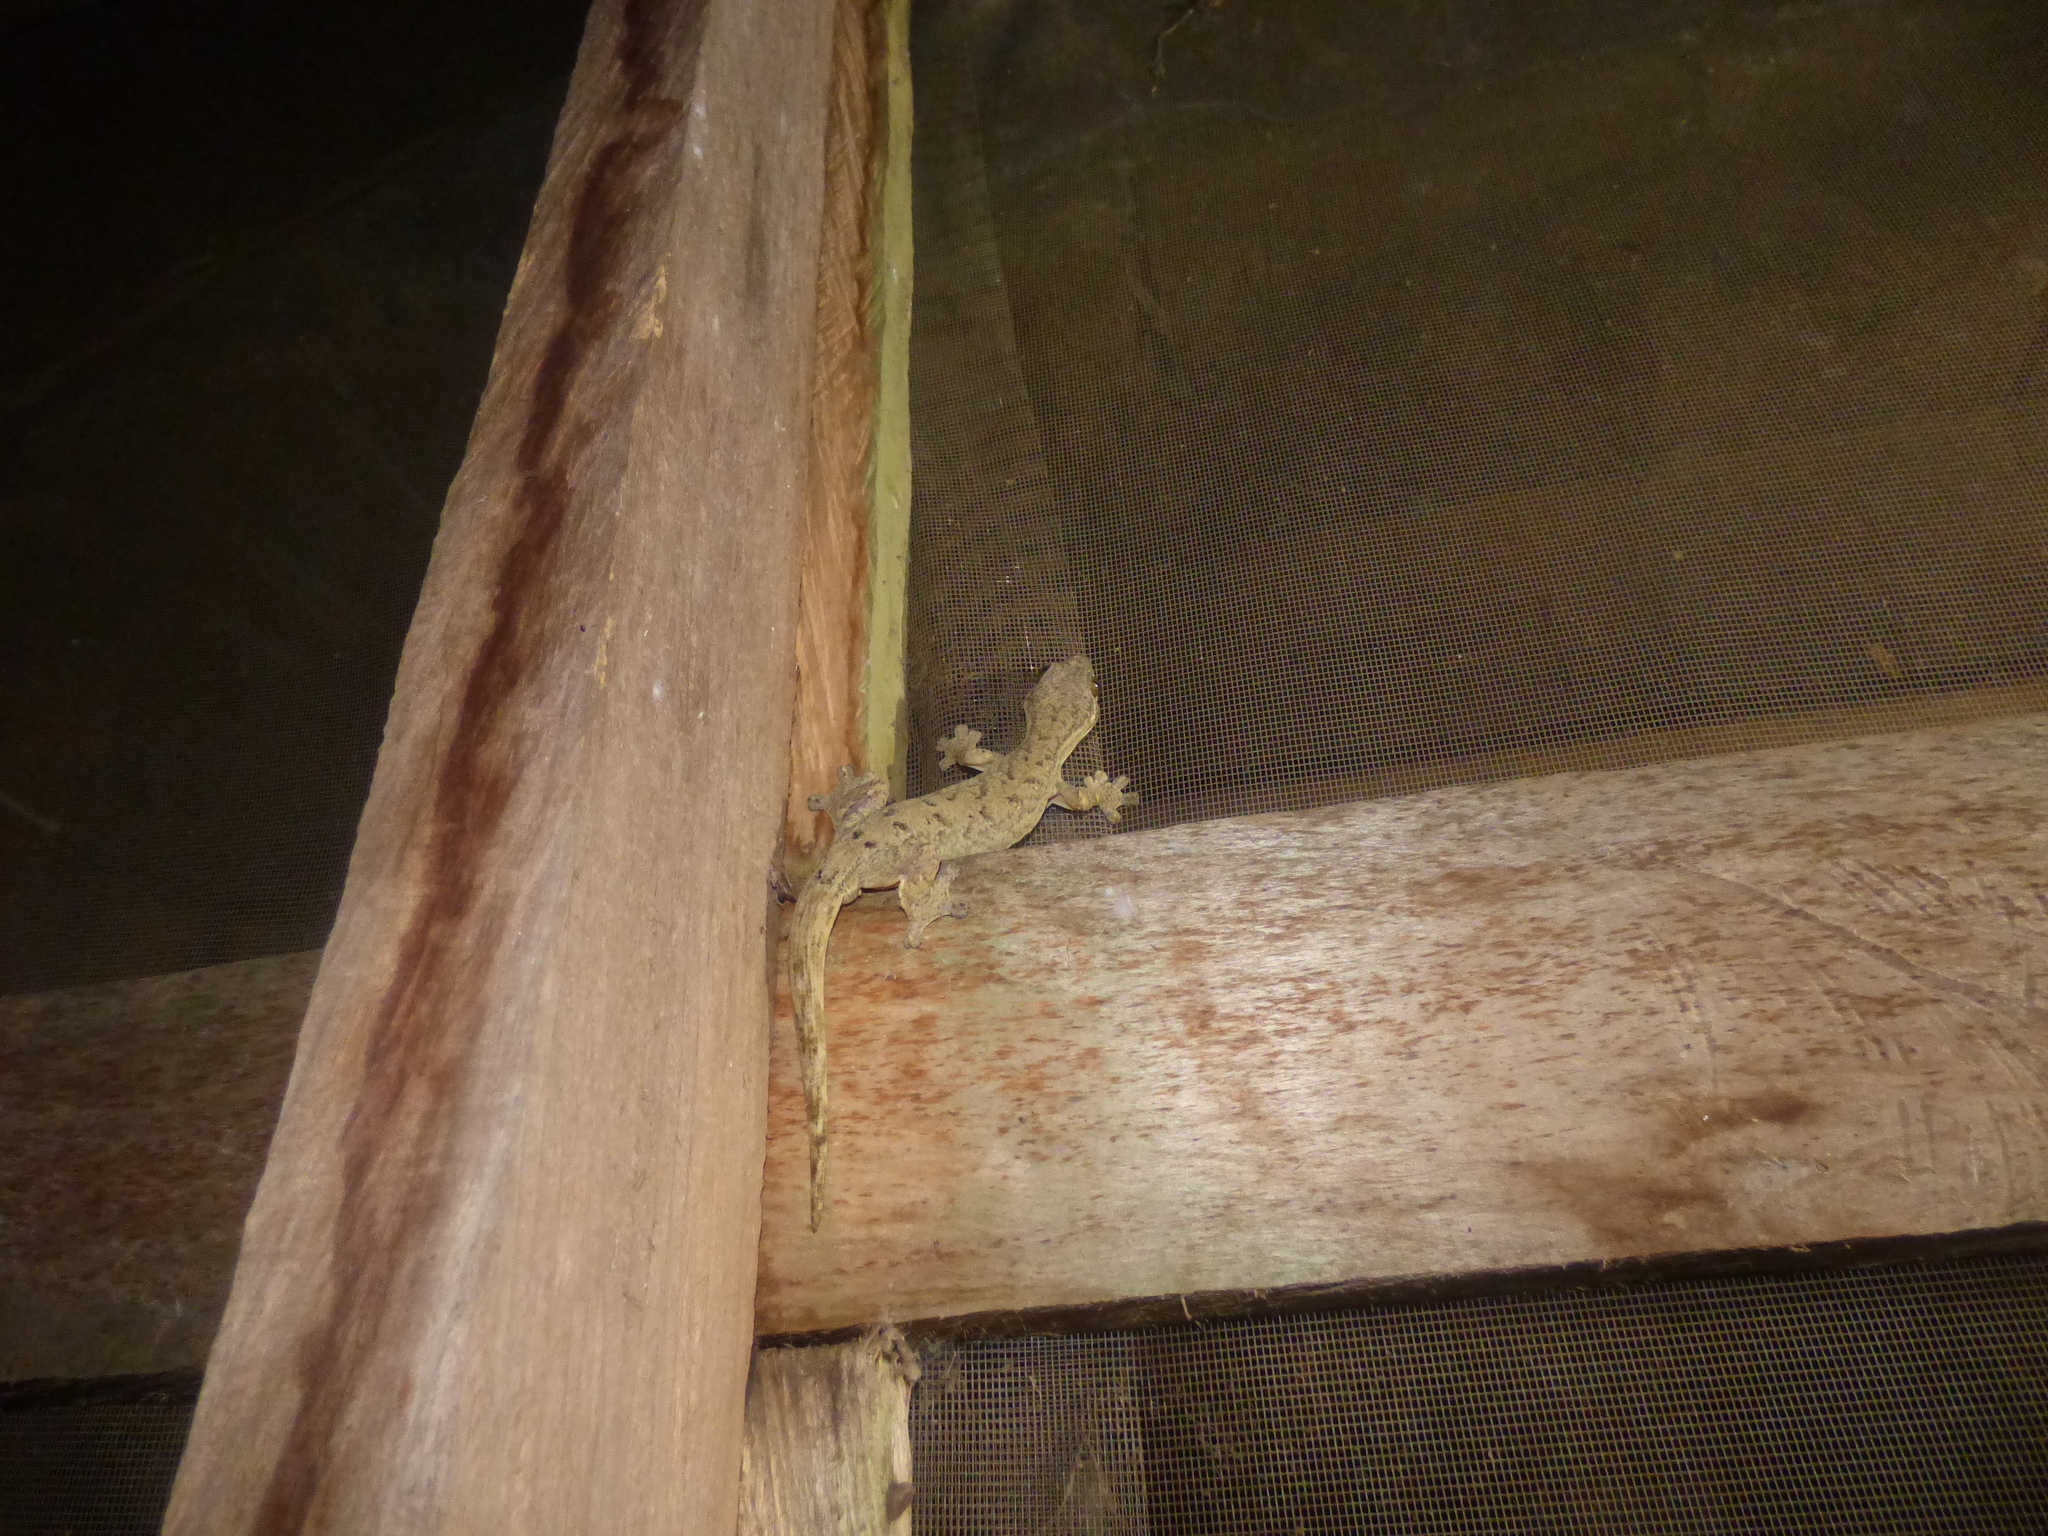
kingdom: Animalia
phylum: Chordata
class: Squamata
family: Phyllodactylidae
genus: Thecadactylus
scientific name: Thecadactylus rapicauda
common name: Turnip-tailed gecko
